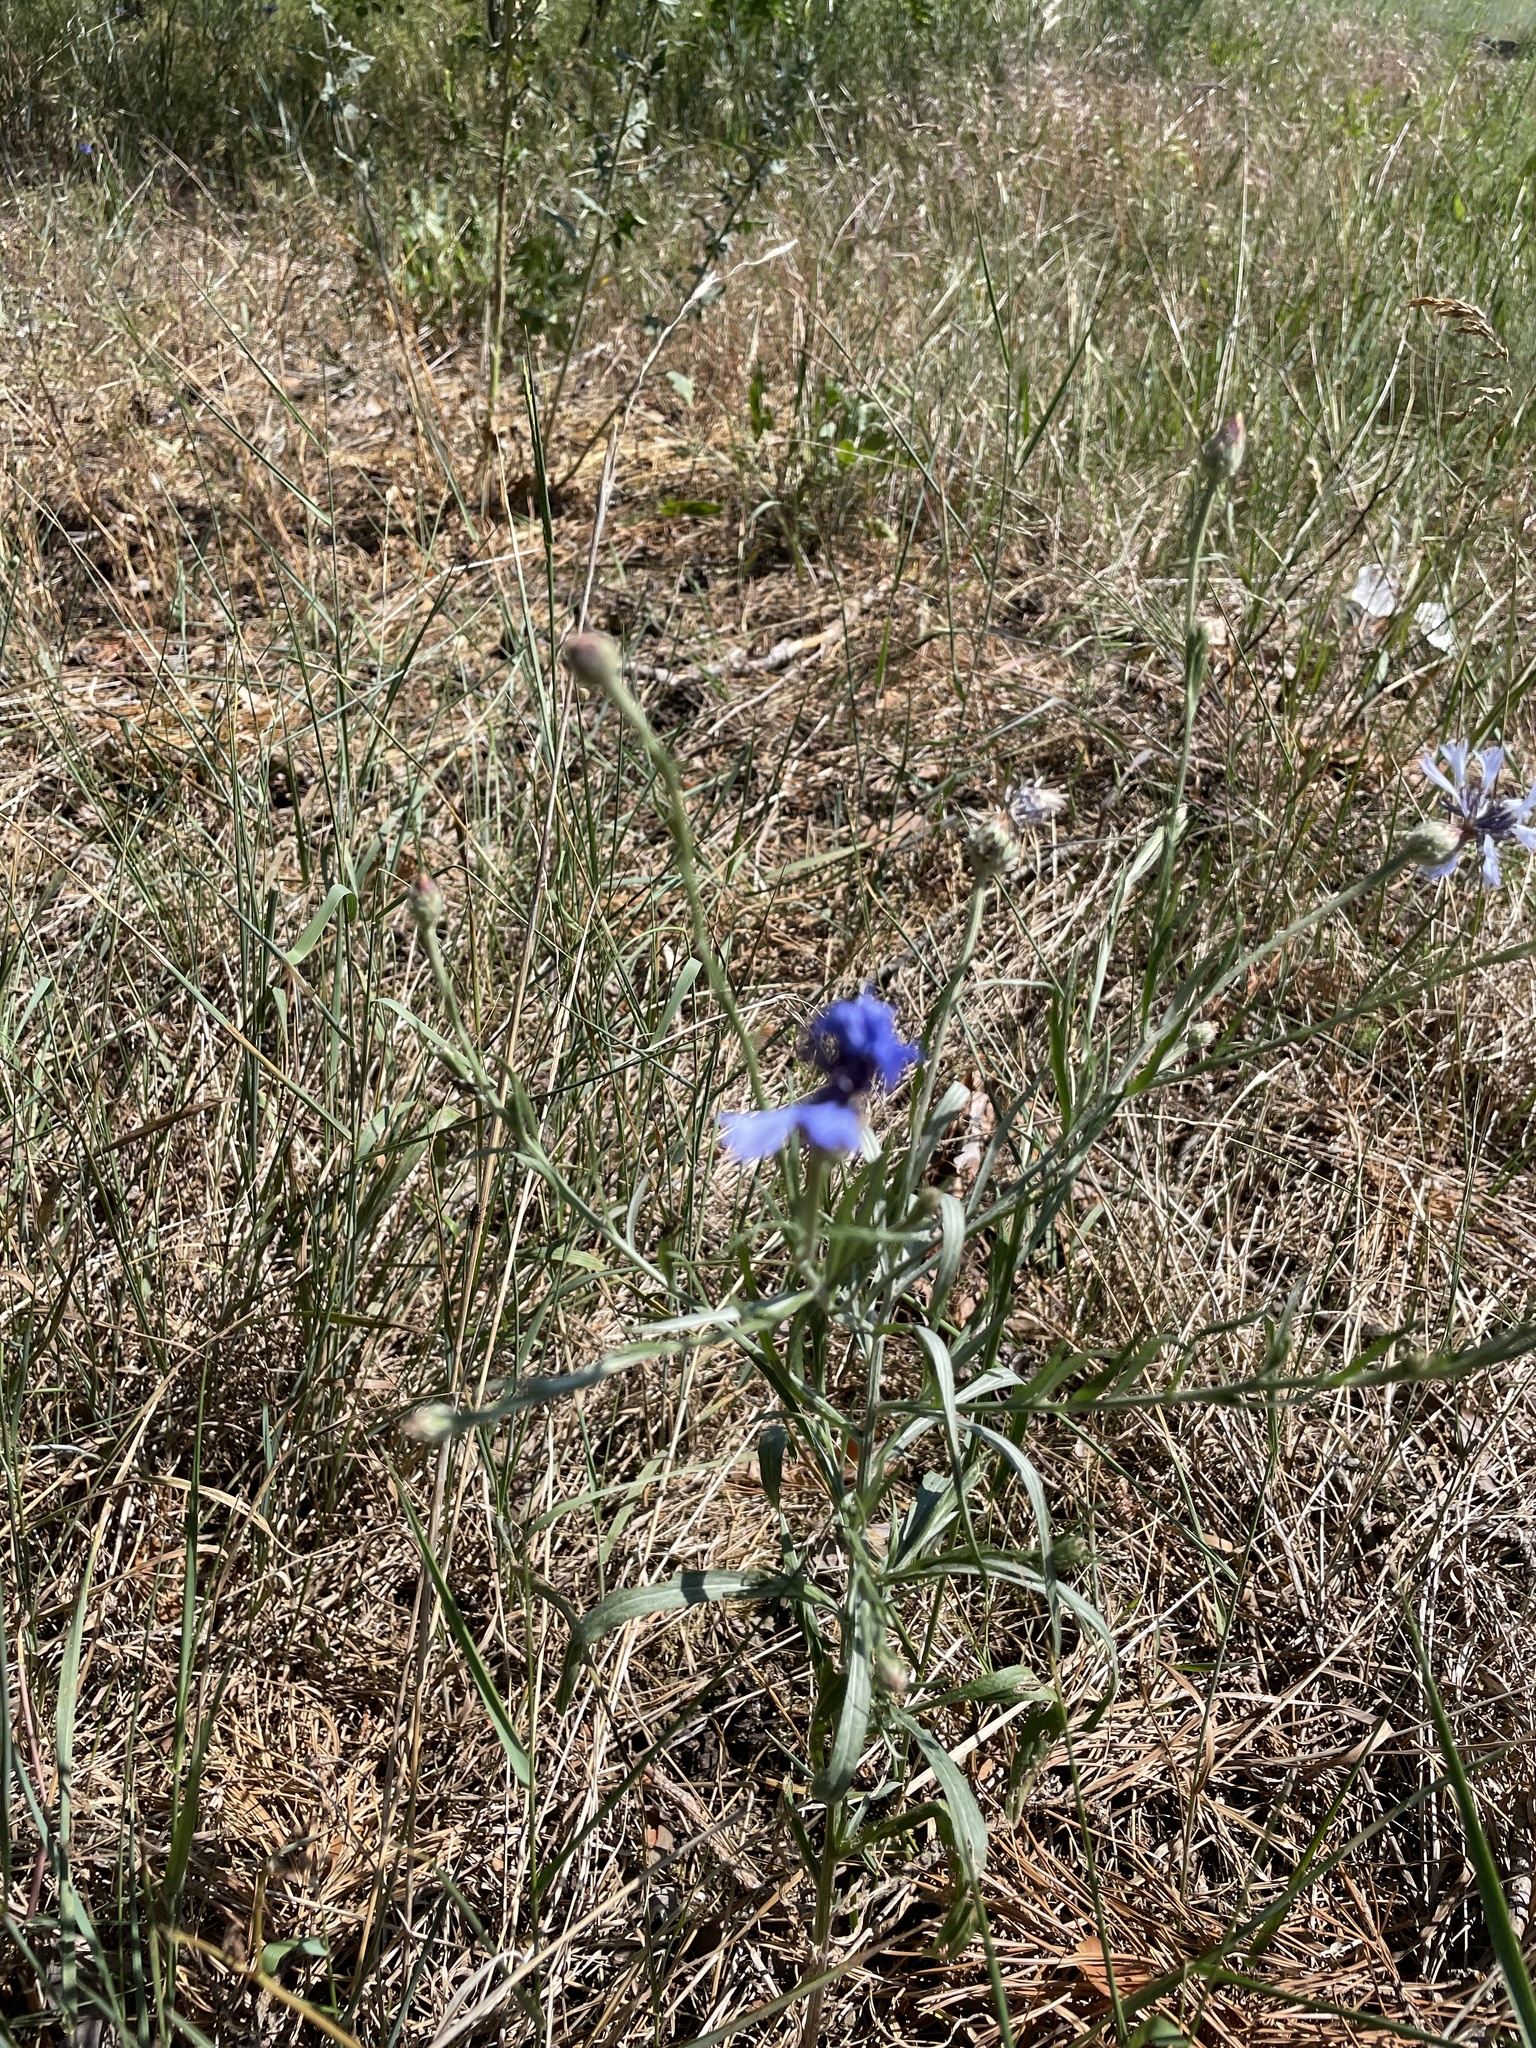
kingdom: Plantae
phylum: Tracheophyta
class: Magnoliopsida
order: Asterales
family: Asteraceae
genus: Centaurea
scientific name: Centaurea cyanus
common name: Cornflower
